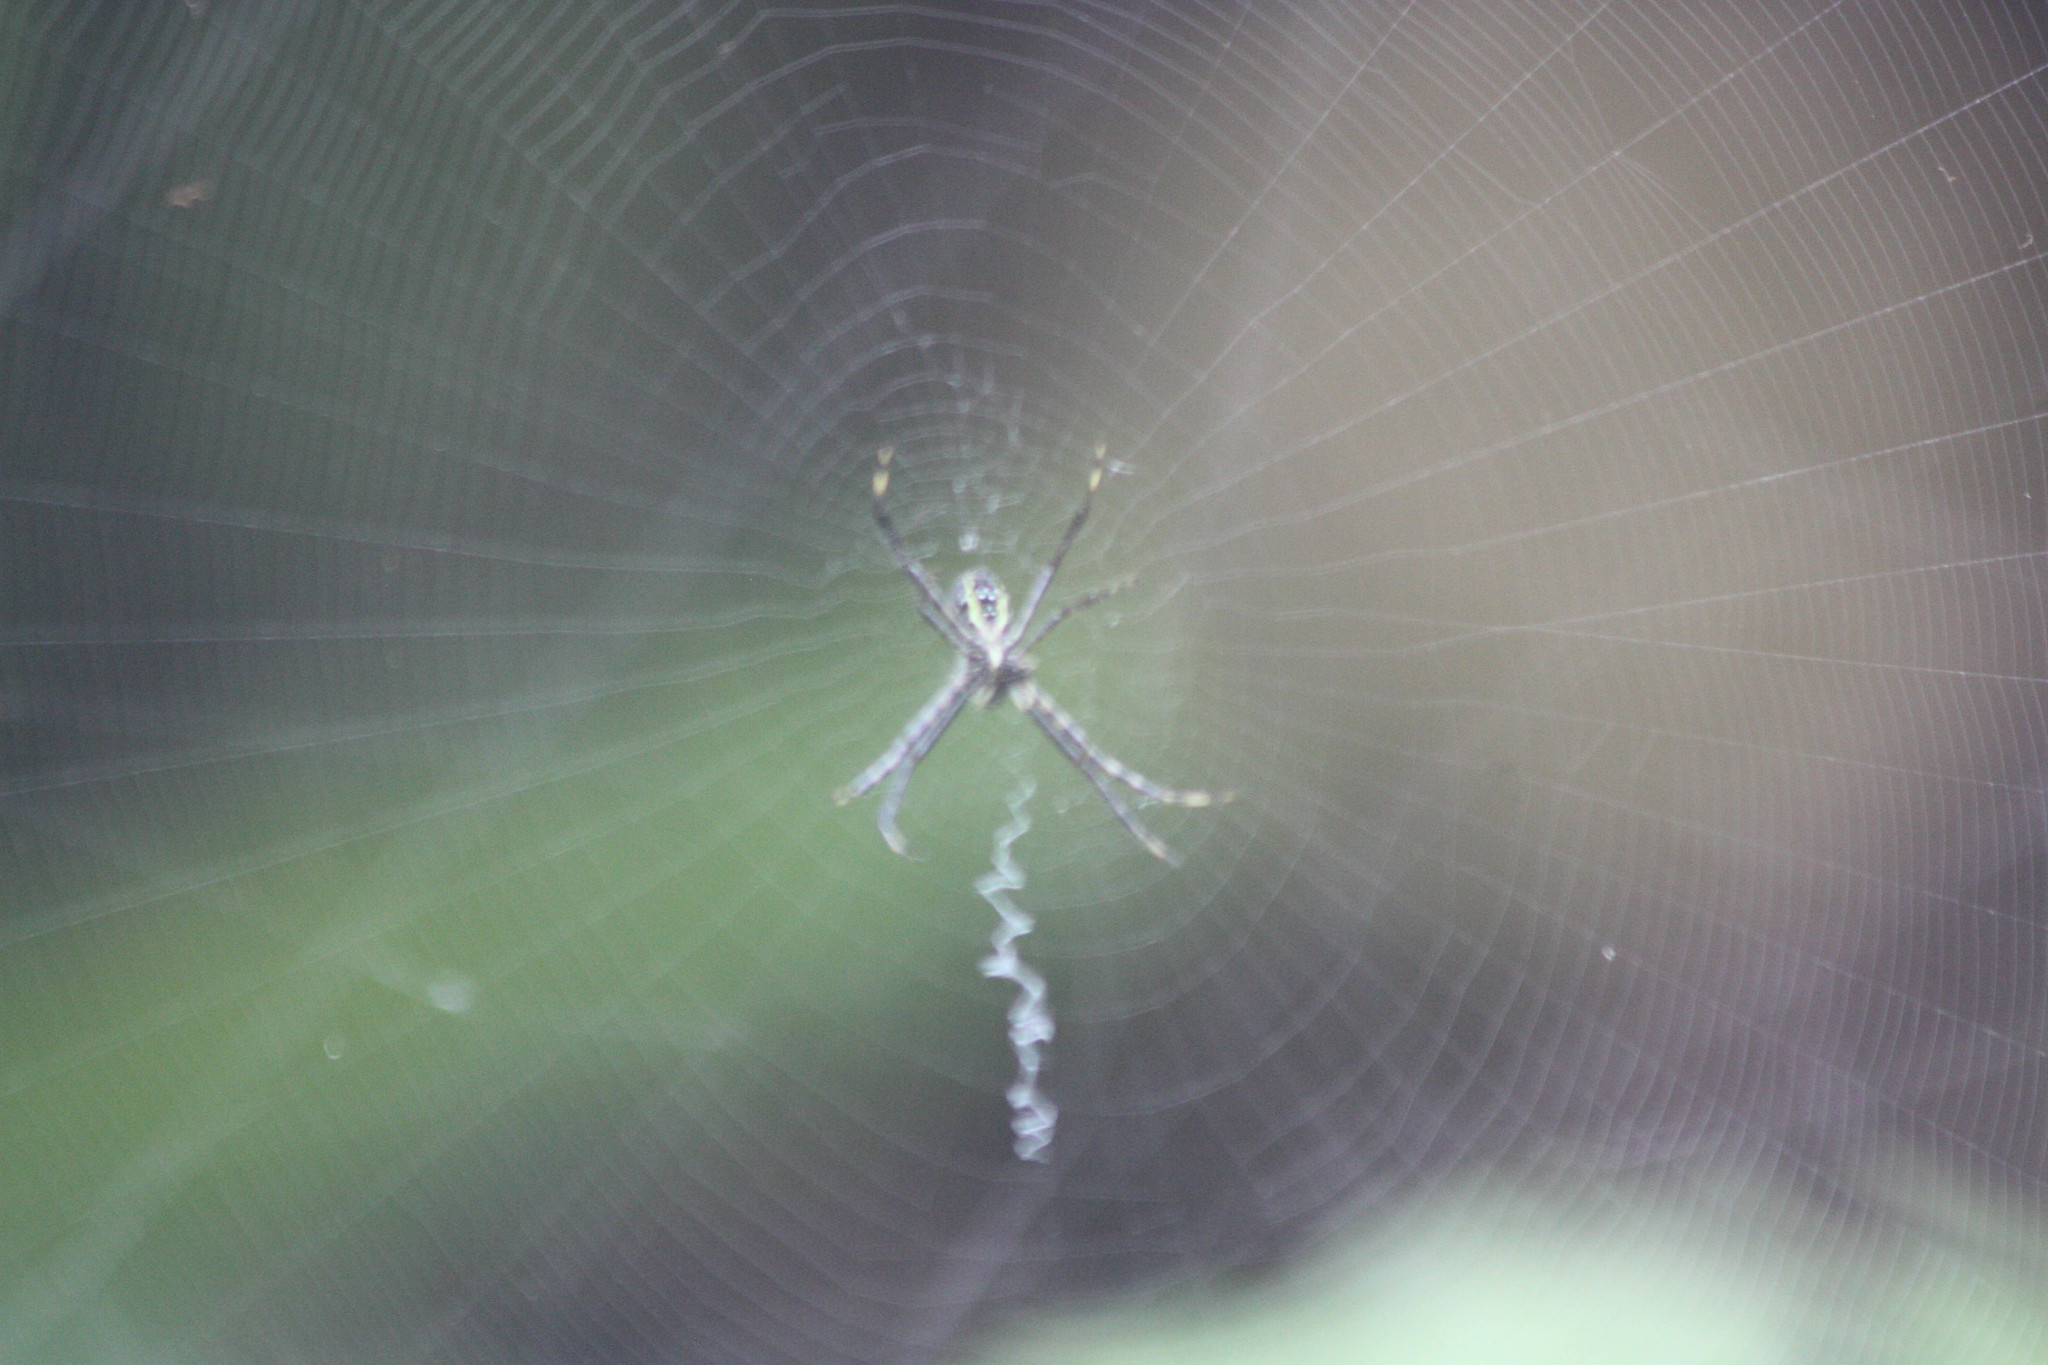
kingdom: Animalia
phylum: Arthropoda
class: Arachnida
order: Araneae
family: Araneidae
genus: Argiope
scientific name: Argiope trifasciata
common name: Banded garden spider
